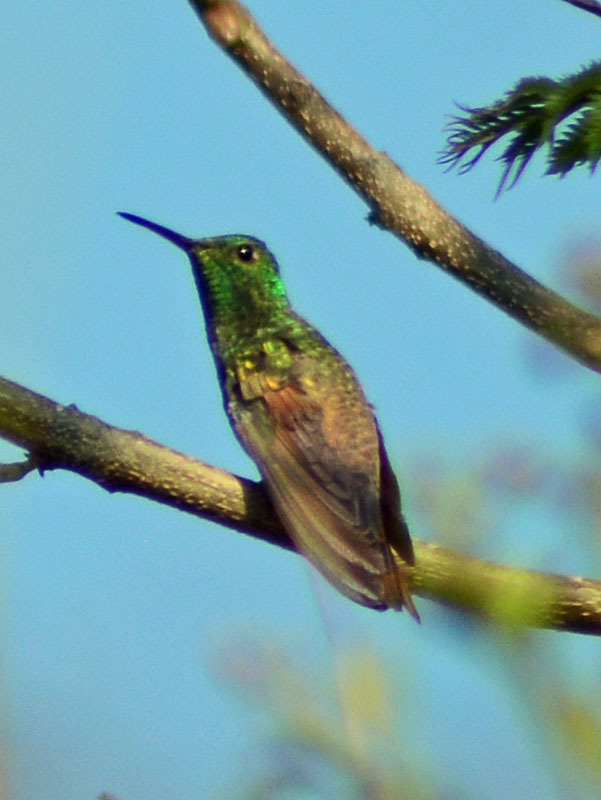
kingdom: Animalia
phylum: Chordata
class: Aves
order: Apodiformes
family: Trochilidae
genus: Saucerottia
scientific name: Saucerottia beryllina
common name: Berylline hummingbird
